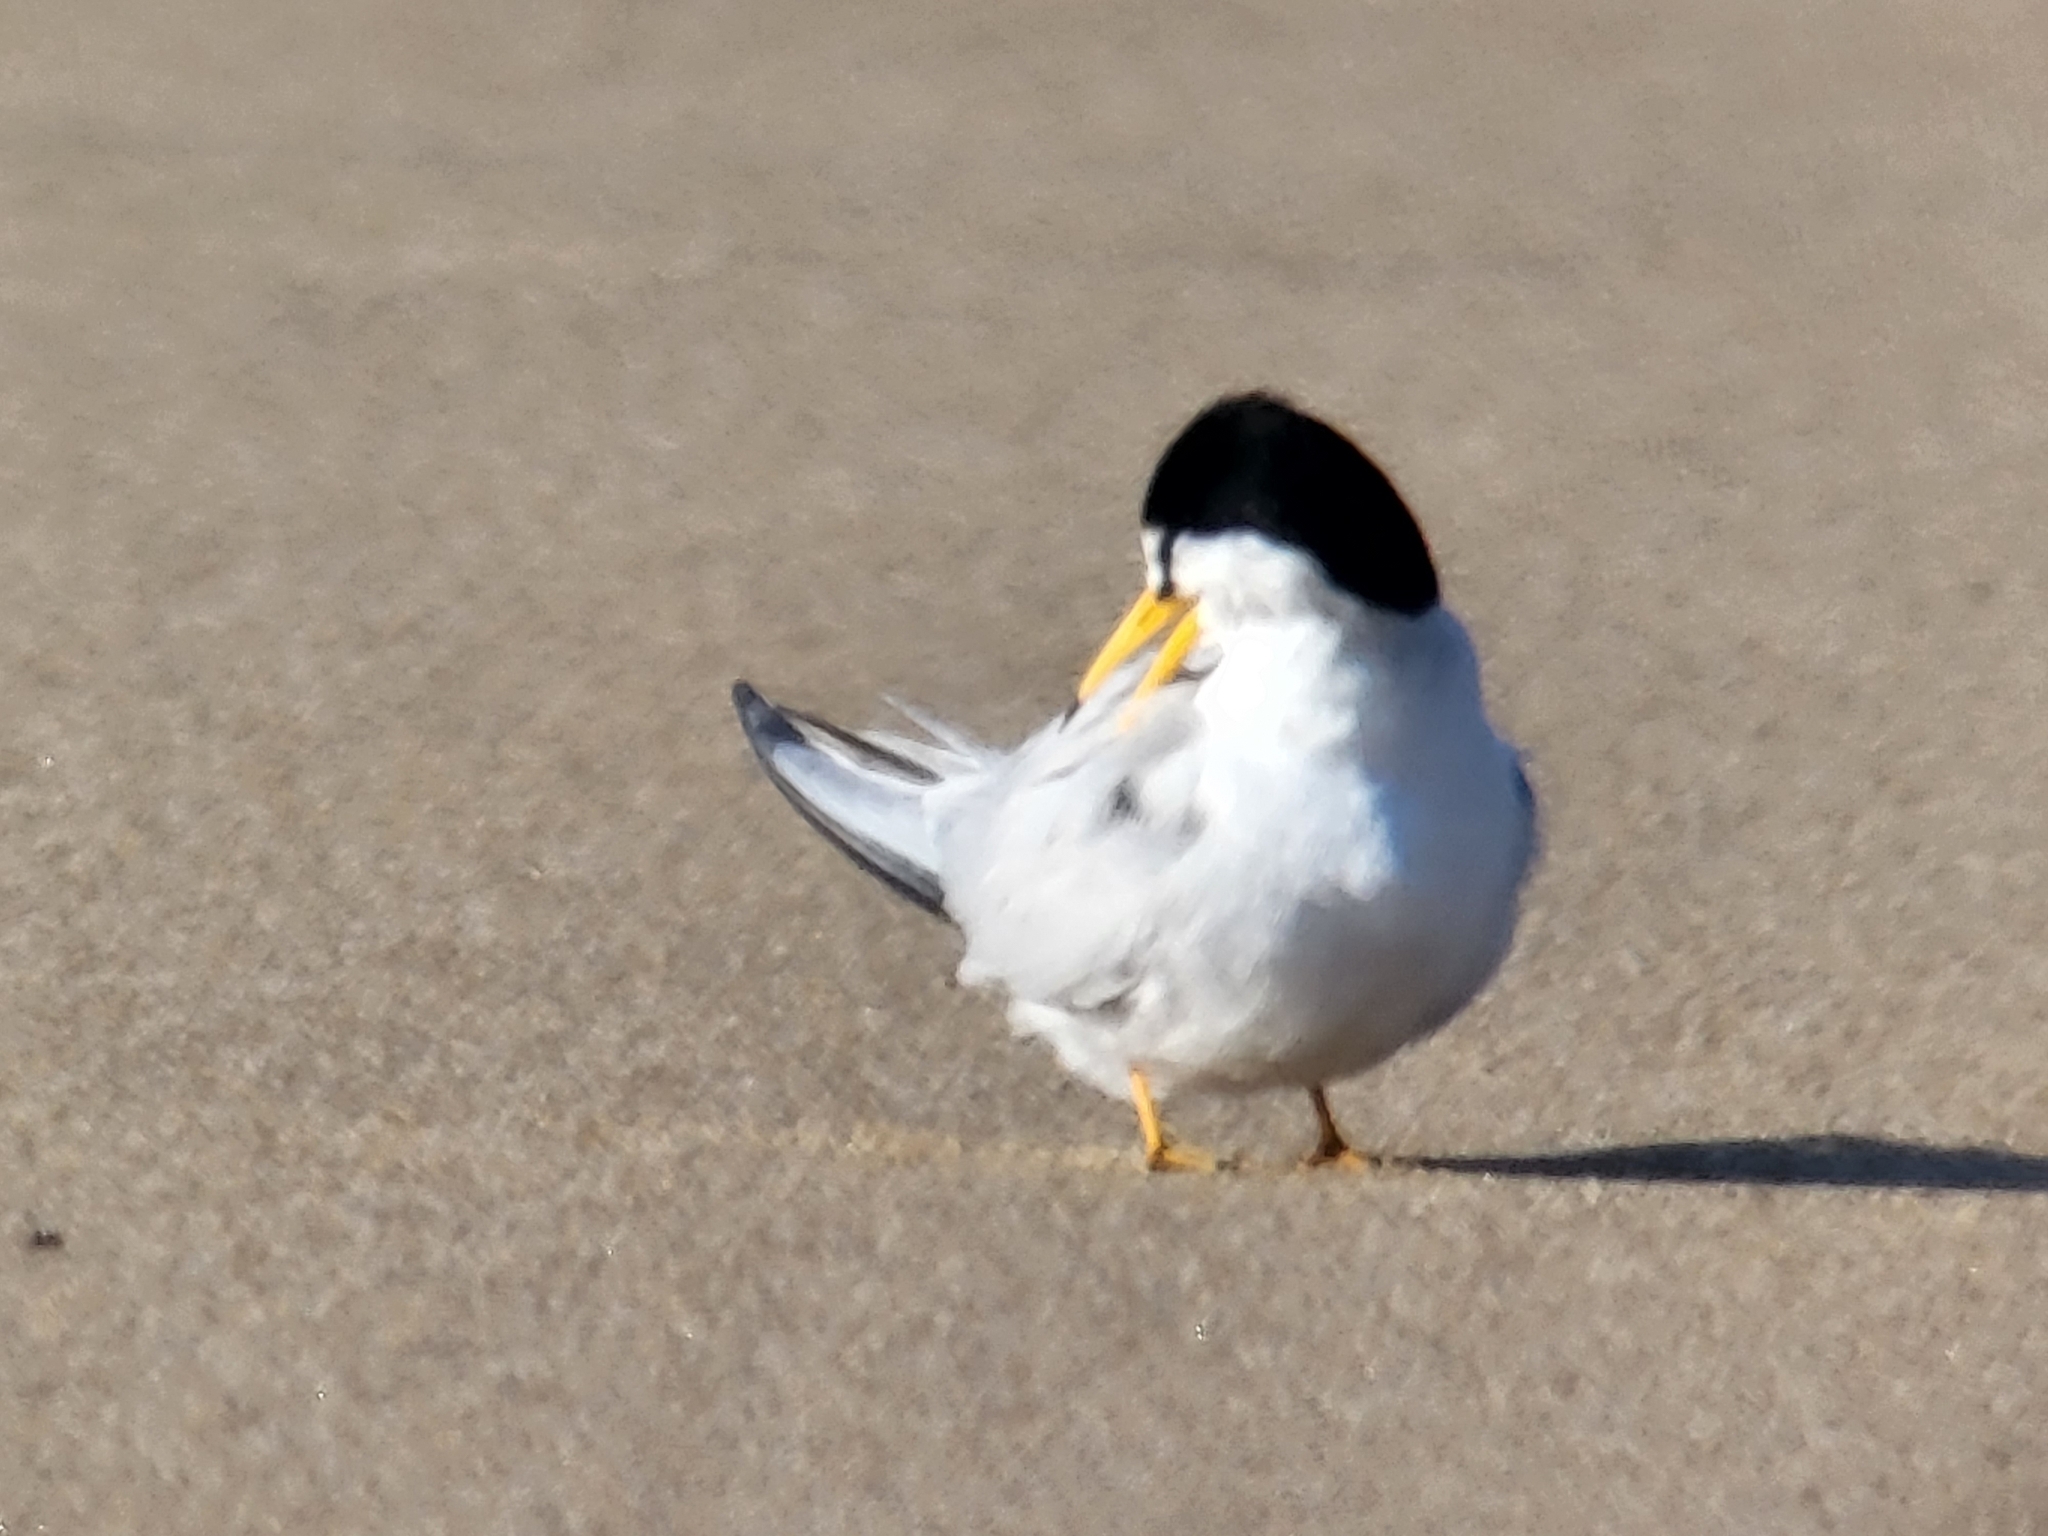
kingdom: Animalia
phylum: Chordata
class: Aves
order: Charadriiformes
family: Laridae
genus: Sternula
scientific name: Sternula antillarum
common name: Least tern
